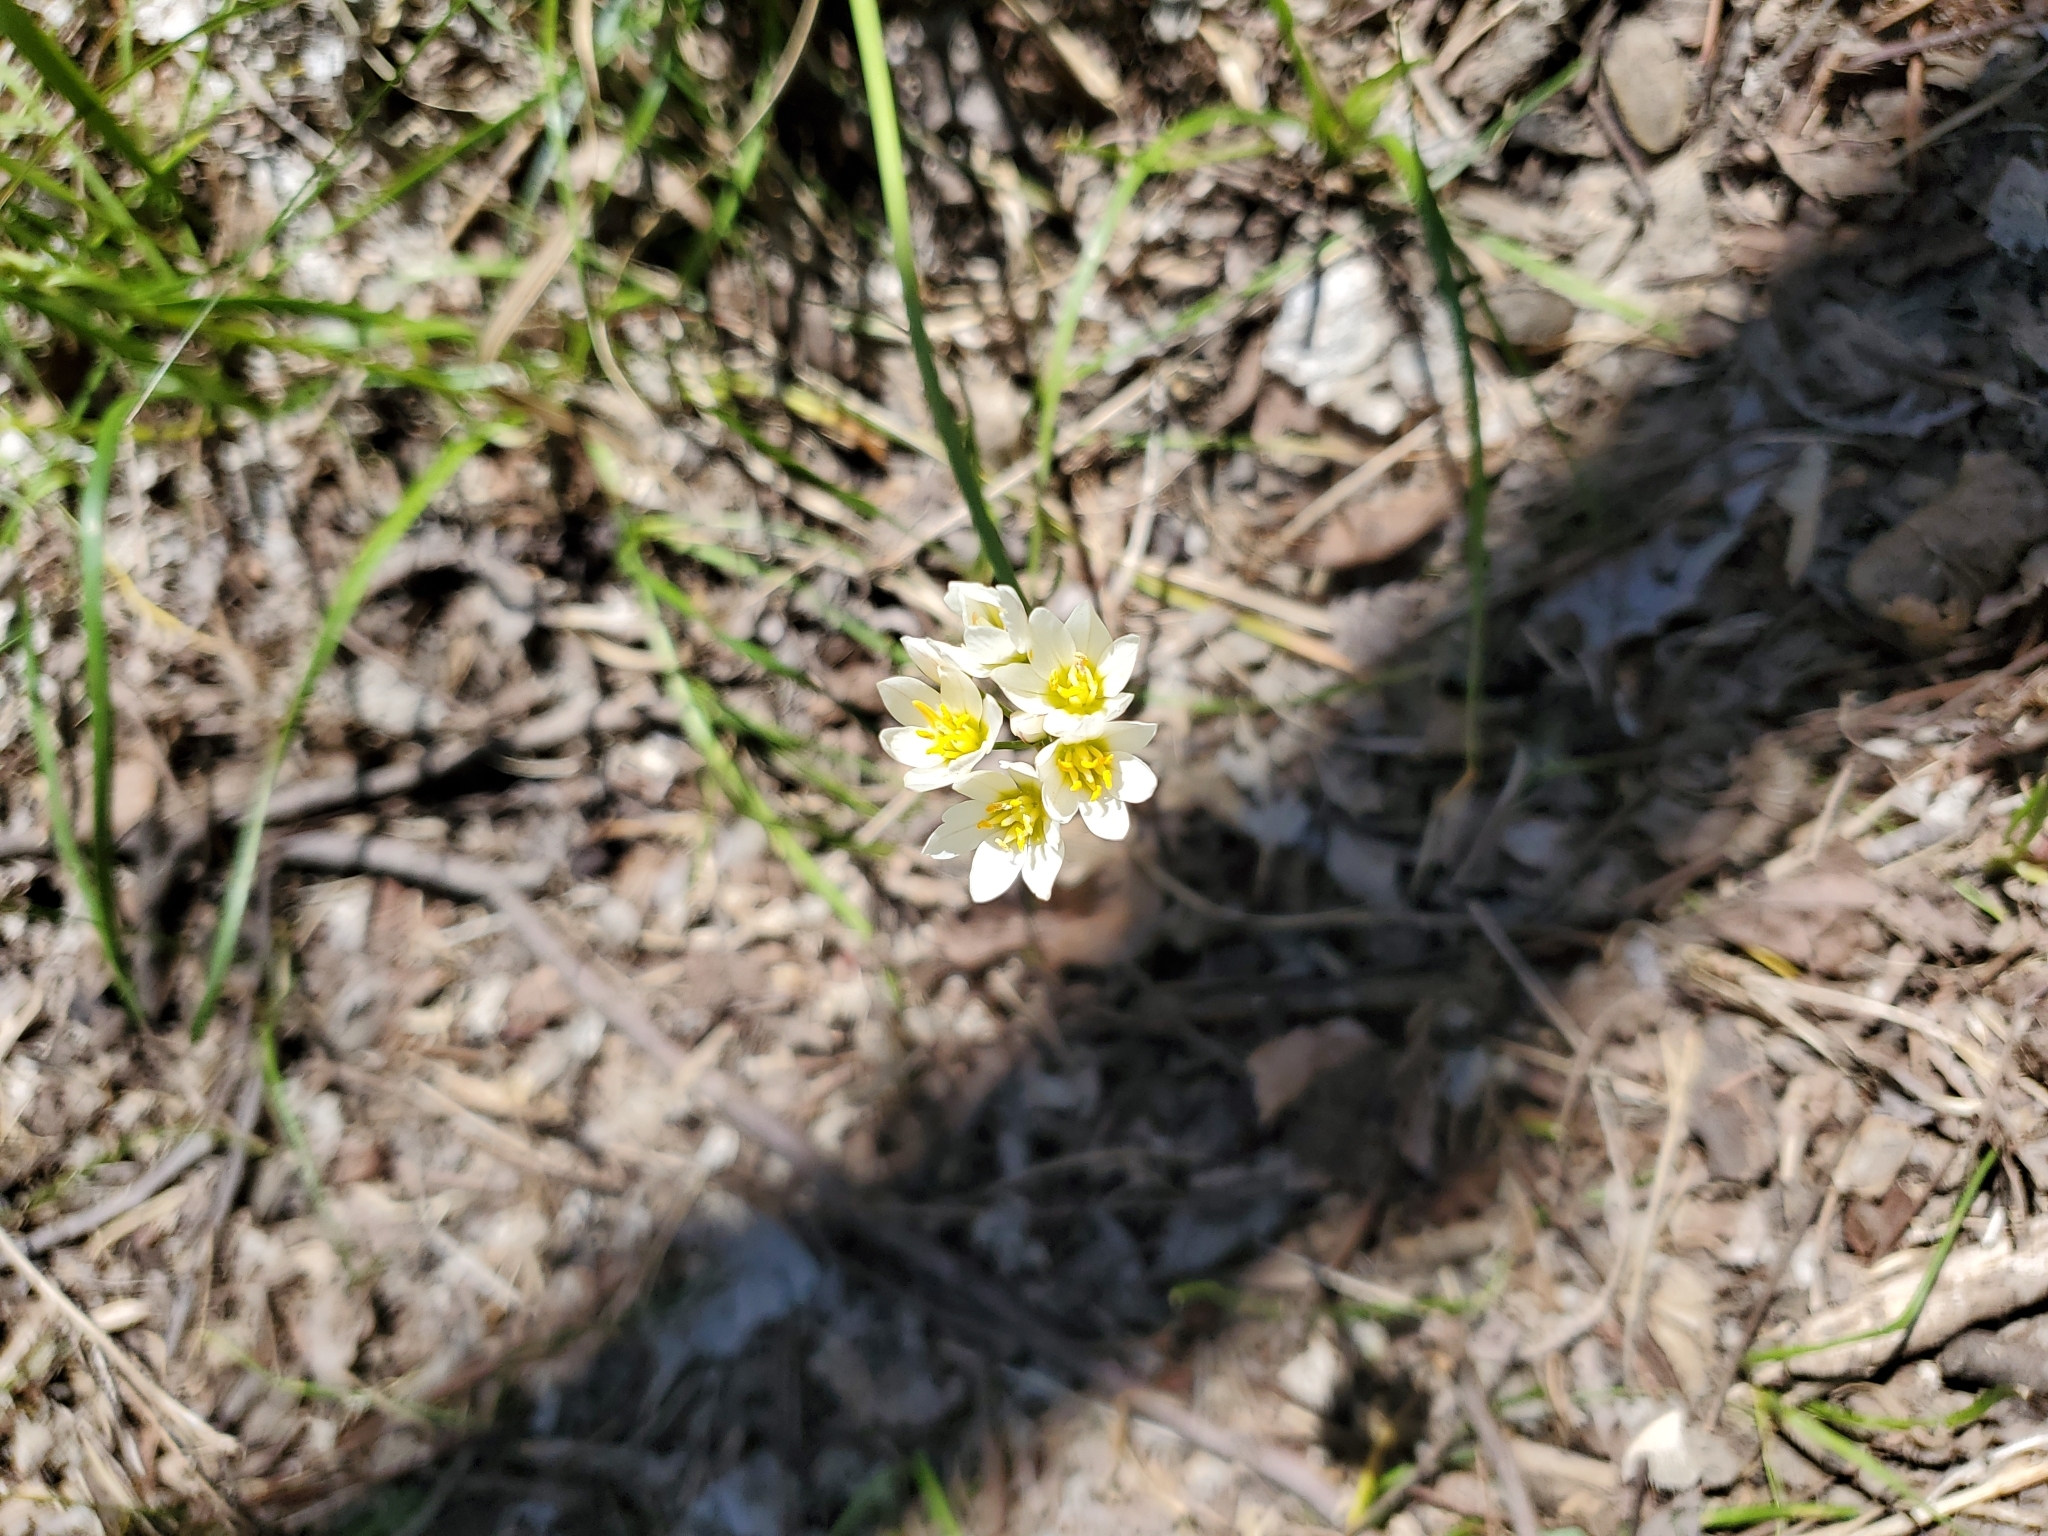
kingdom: Plantae
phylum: Tracheophyta
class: Liliopsida
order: Asparagales
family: Amaryllidaceae
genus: Nothoscordum
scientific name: Nothoscordum bivalve
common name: Crow-poison
